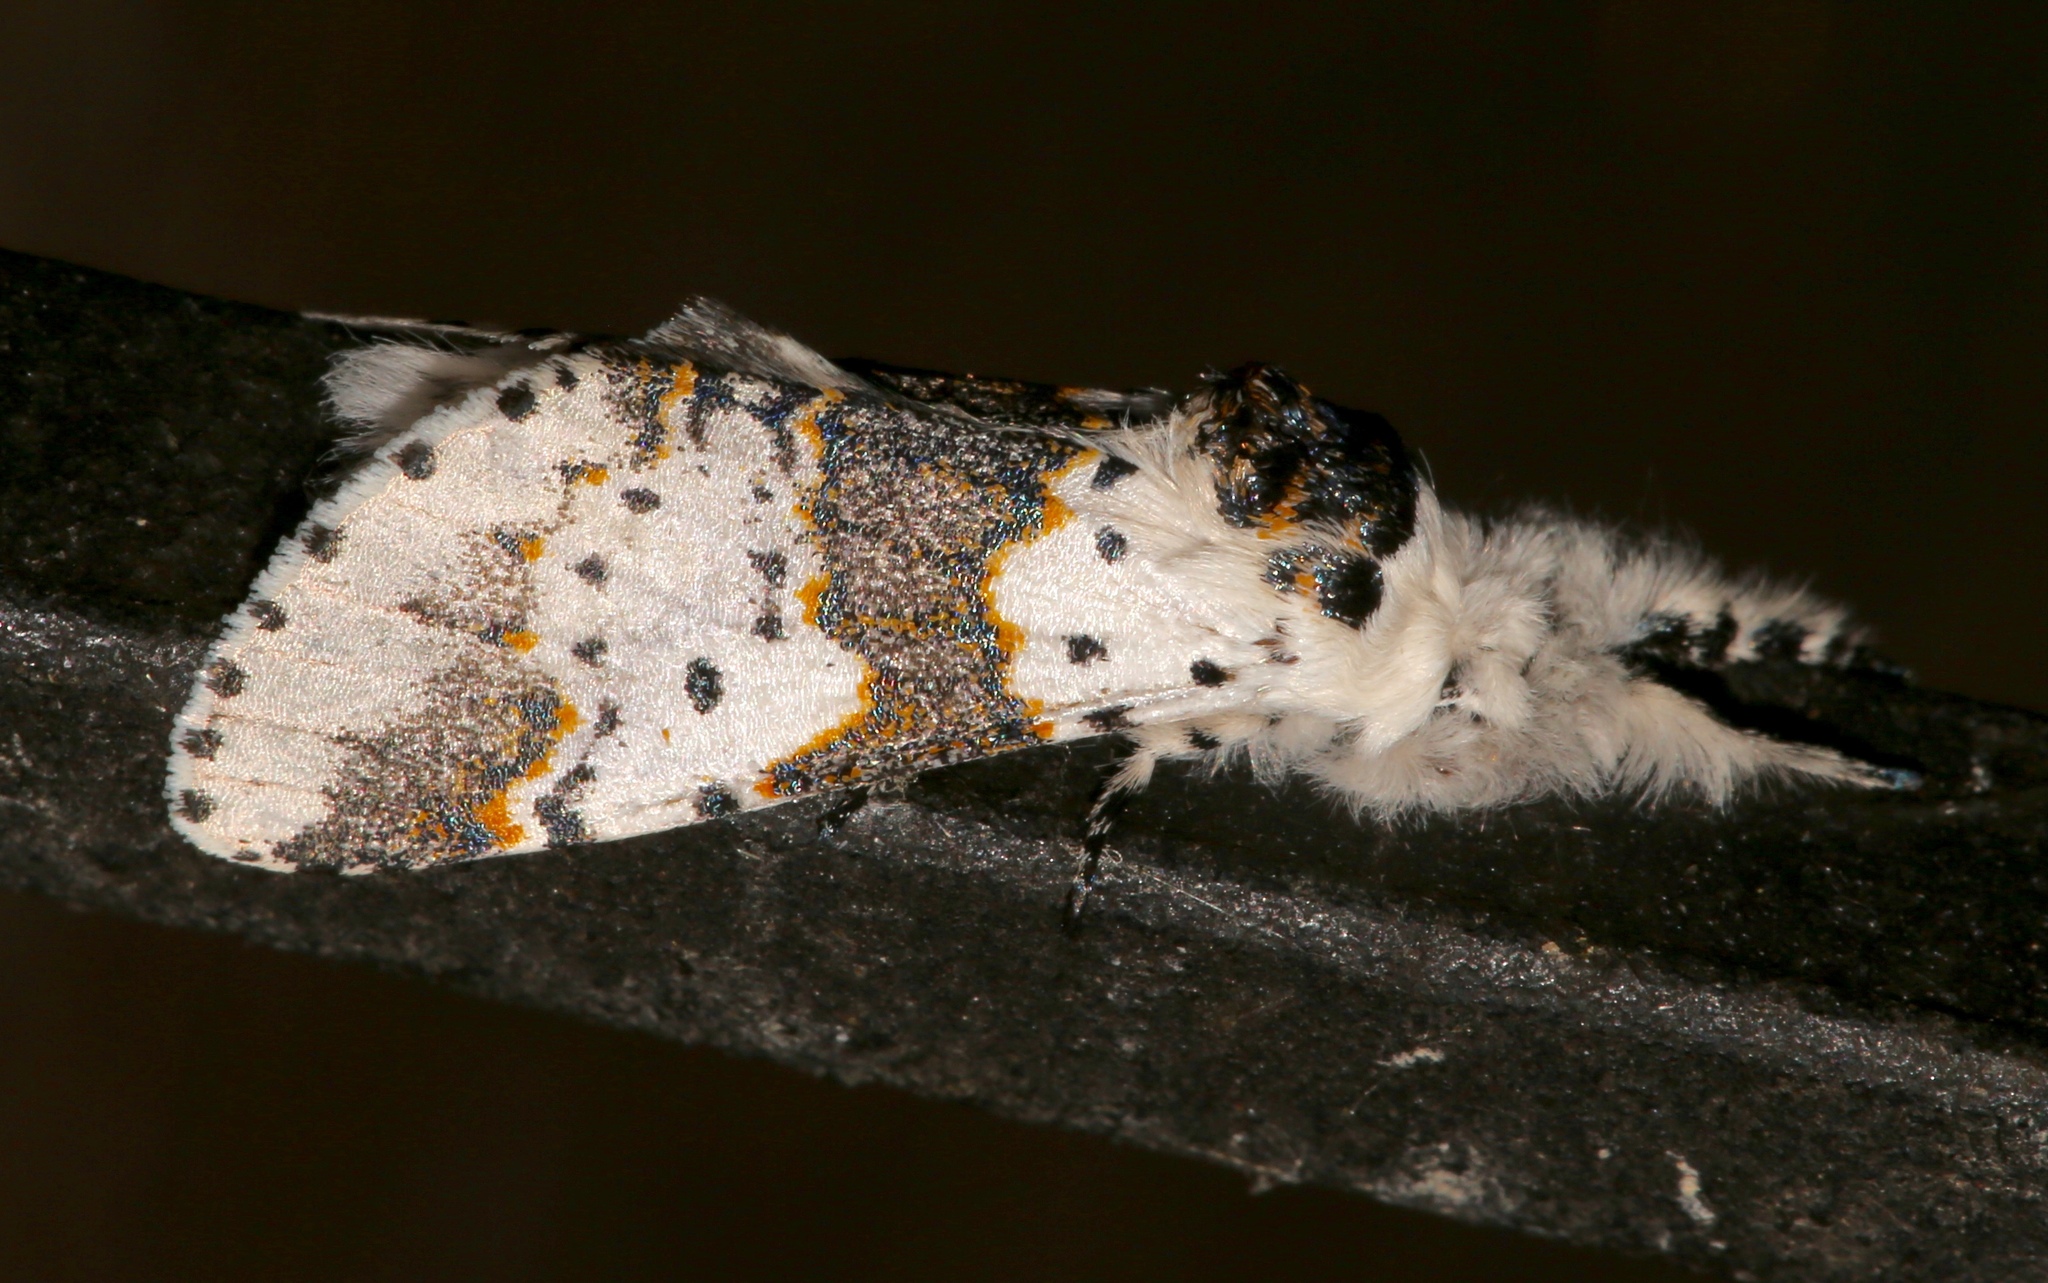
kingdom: Animalia
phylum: Arthropoda
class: Insecta
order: Lepidoptera
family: Notodontidae
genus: Furcula
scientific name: Furcula borealis
